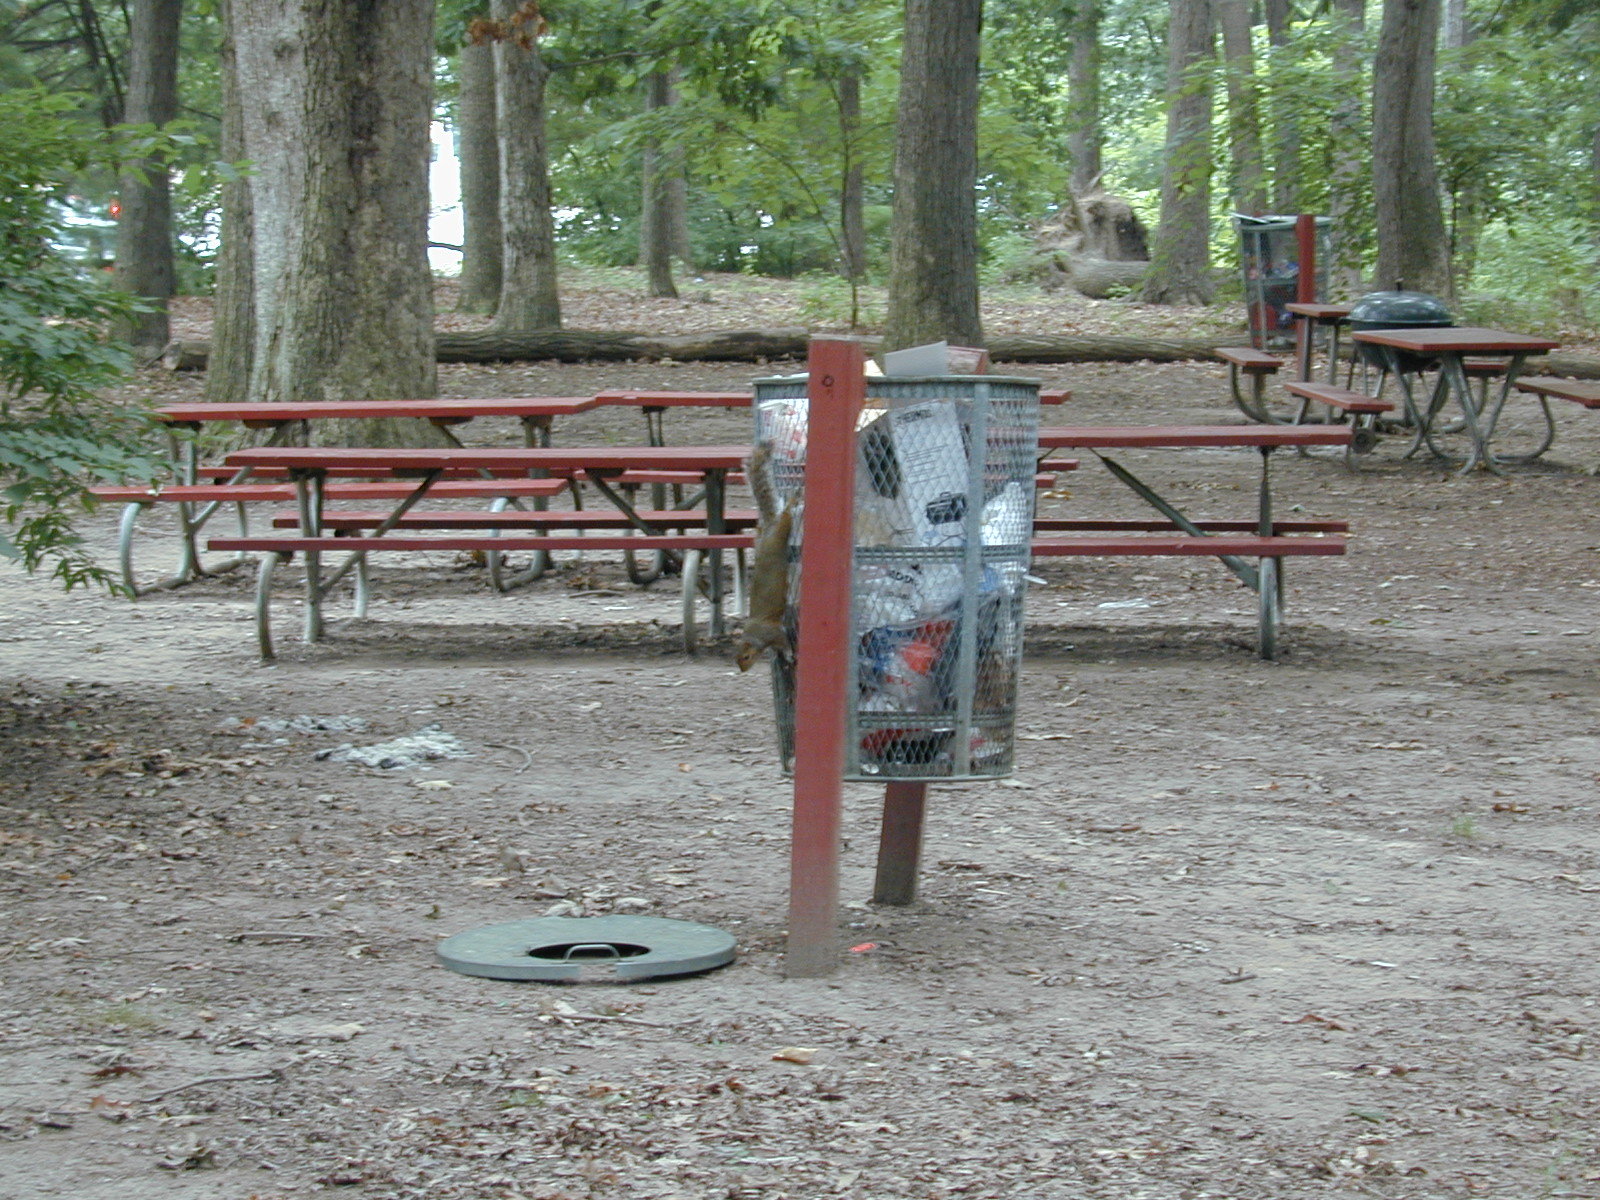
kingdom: Animalia
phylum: Chordata
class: Mammalia
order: Rodentia
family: Sciuridae
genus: Sciurus
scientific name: Sciurus carolinensis
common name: Eastern gray squirrel
